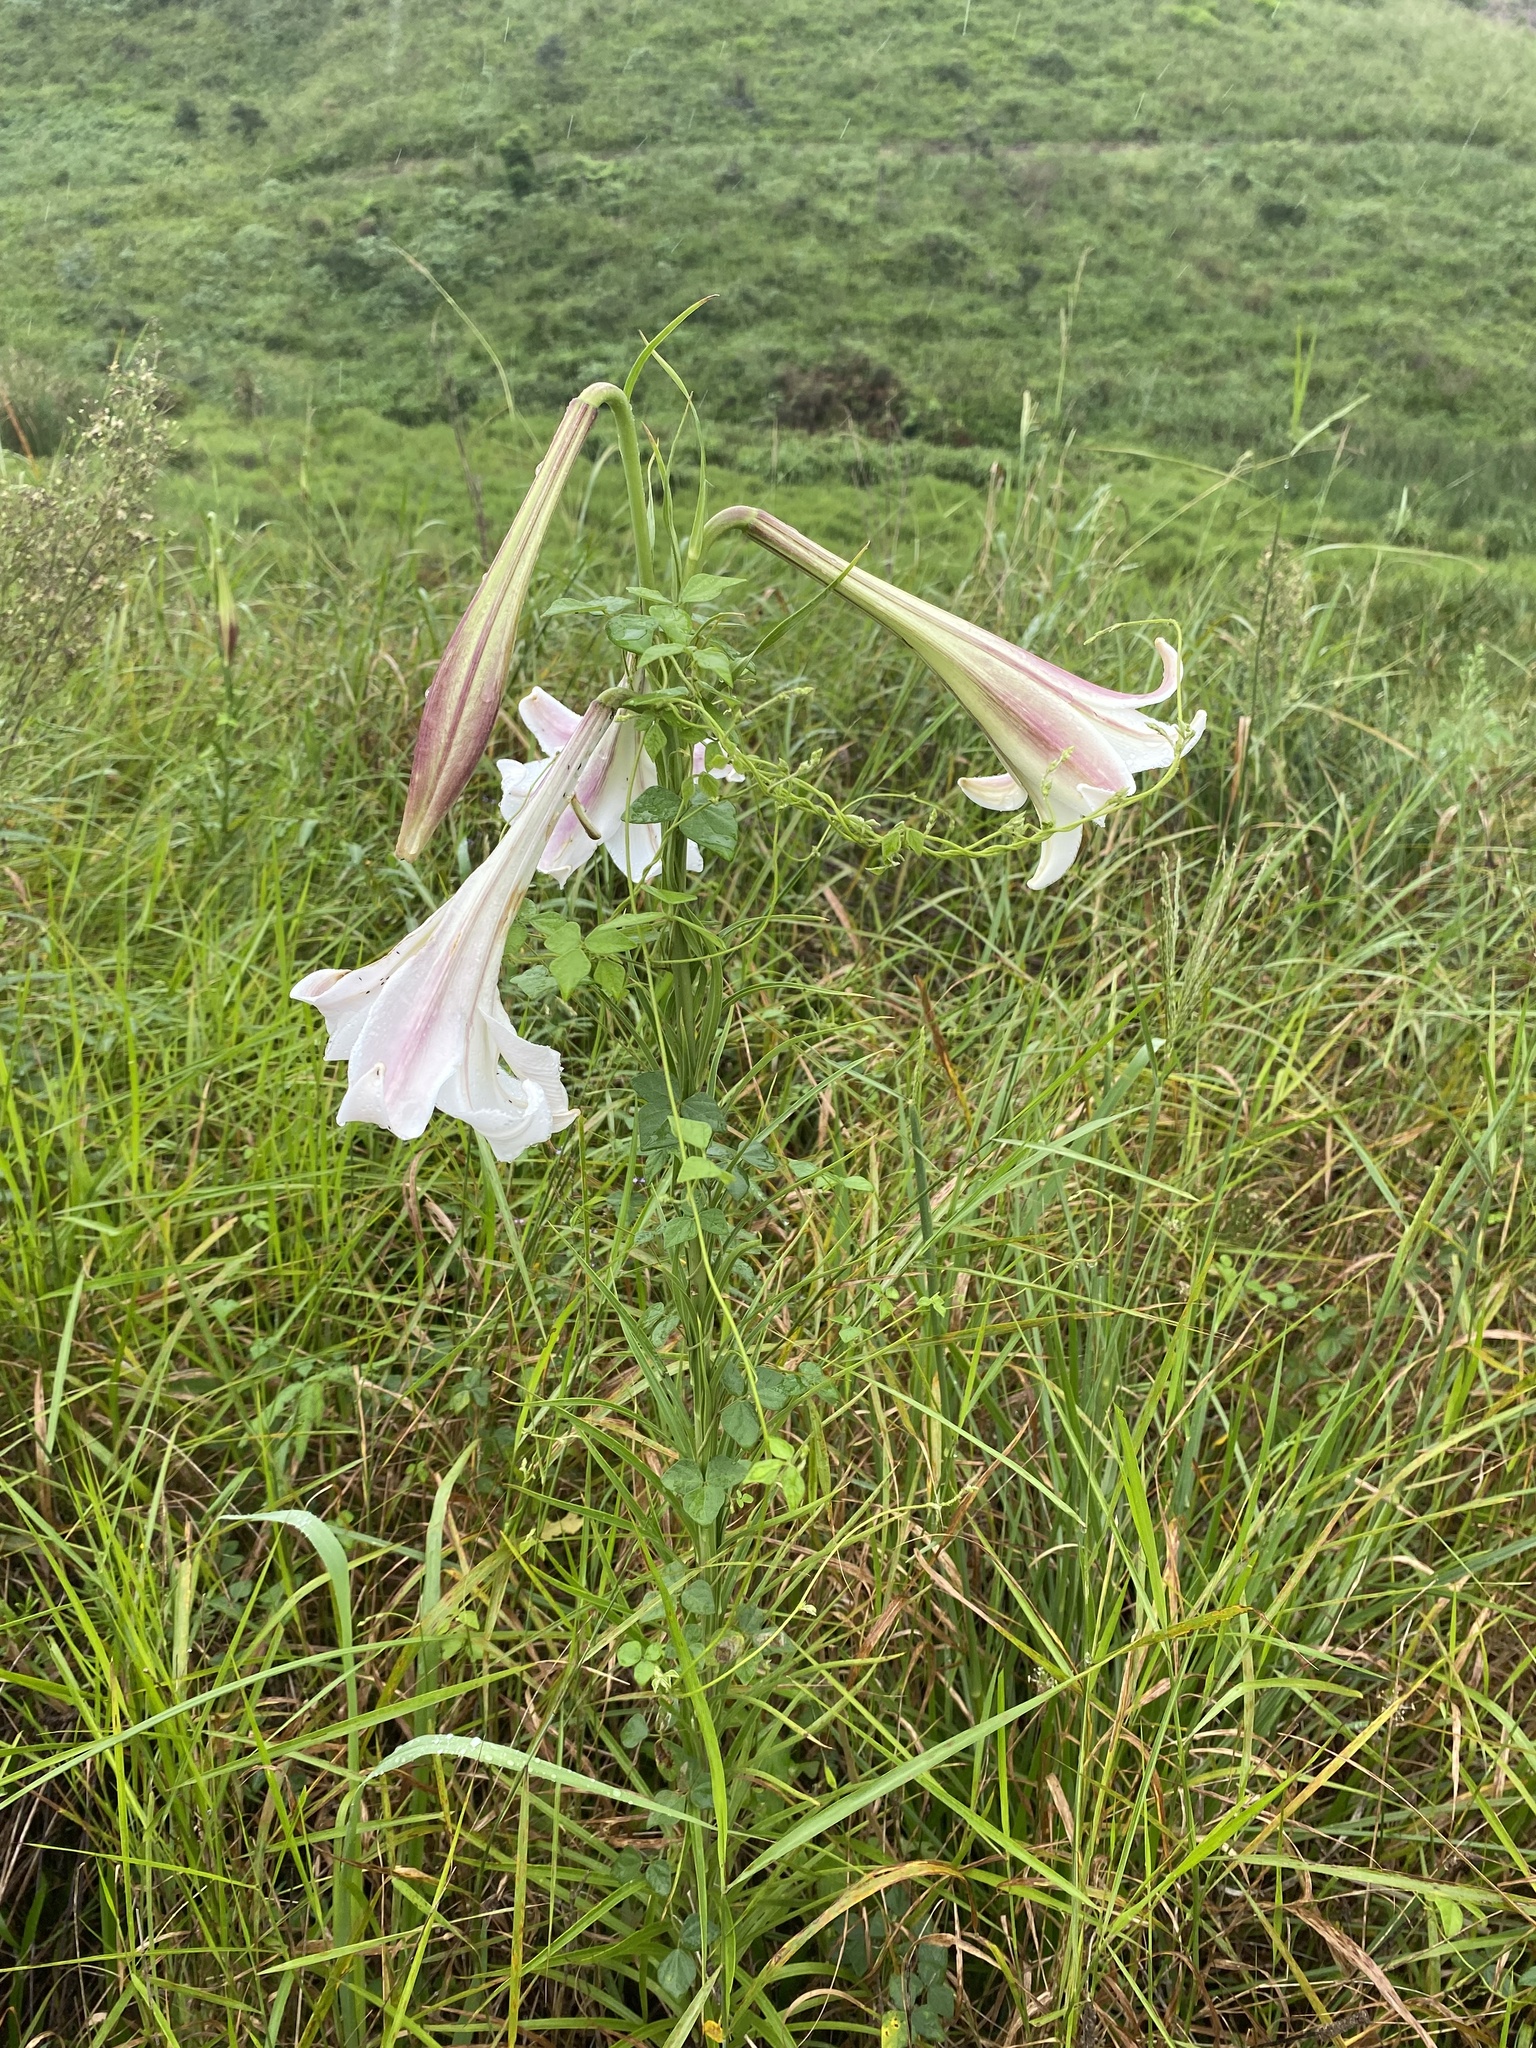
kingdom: Plantae
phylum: Tracheophyta
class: Liliopsida
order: Liliales
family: Liliaceae
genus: Lilium
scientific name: Lilium formosanum
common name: Formosa lily
